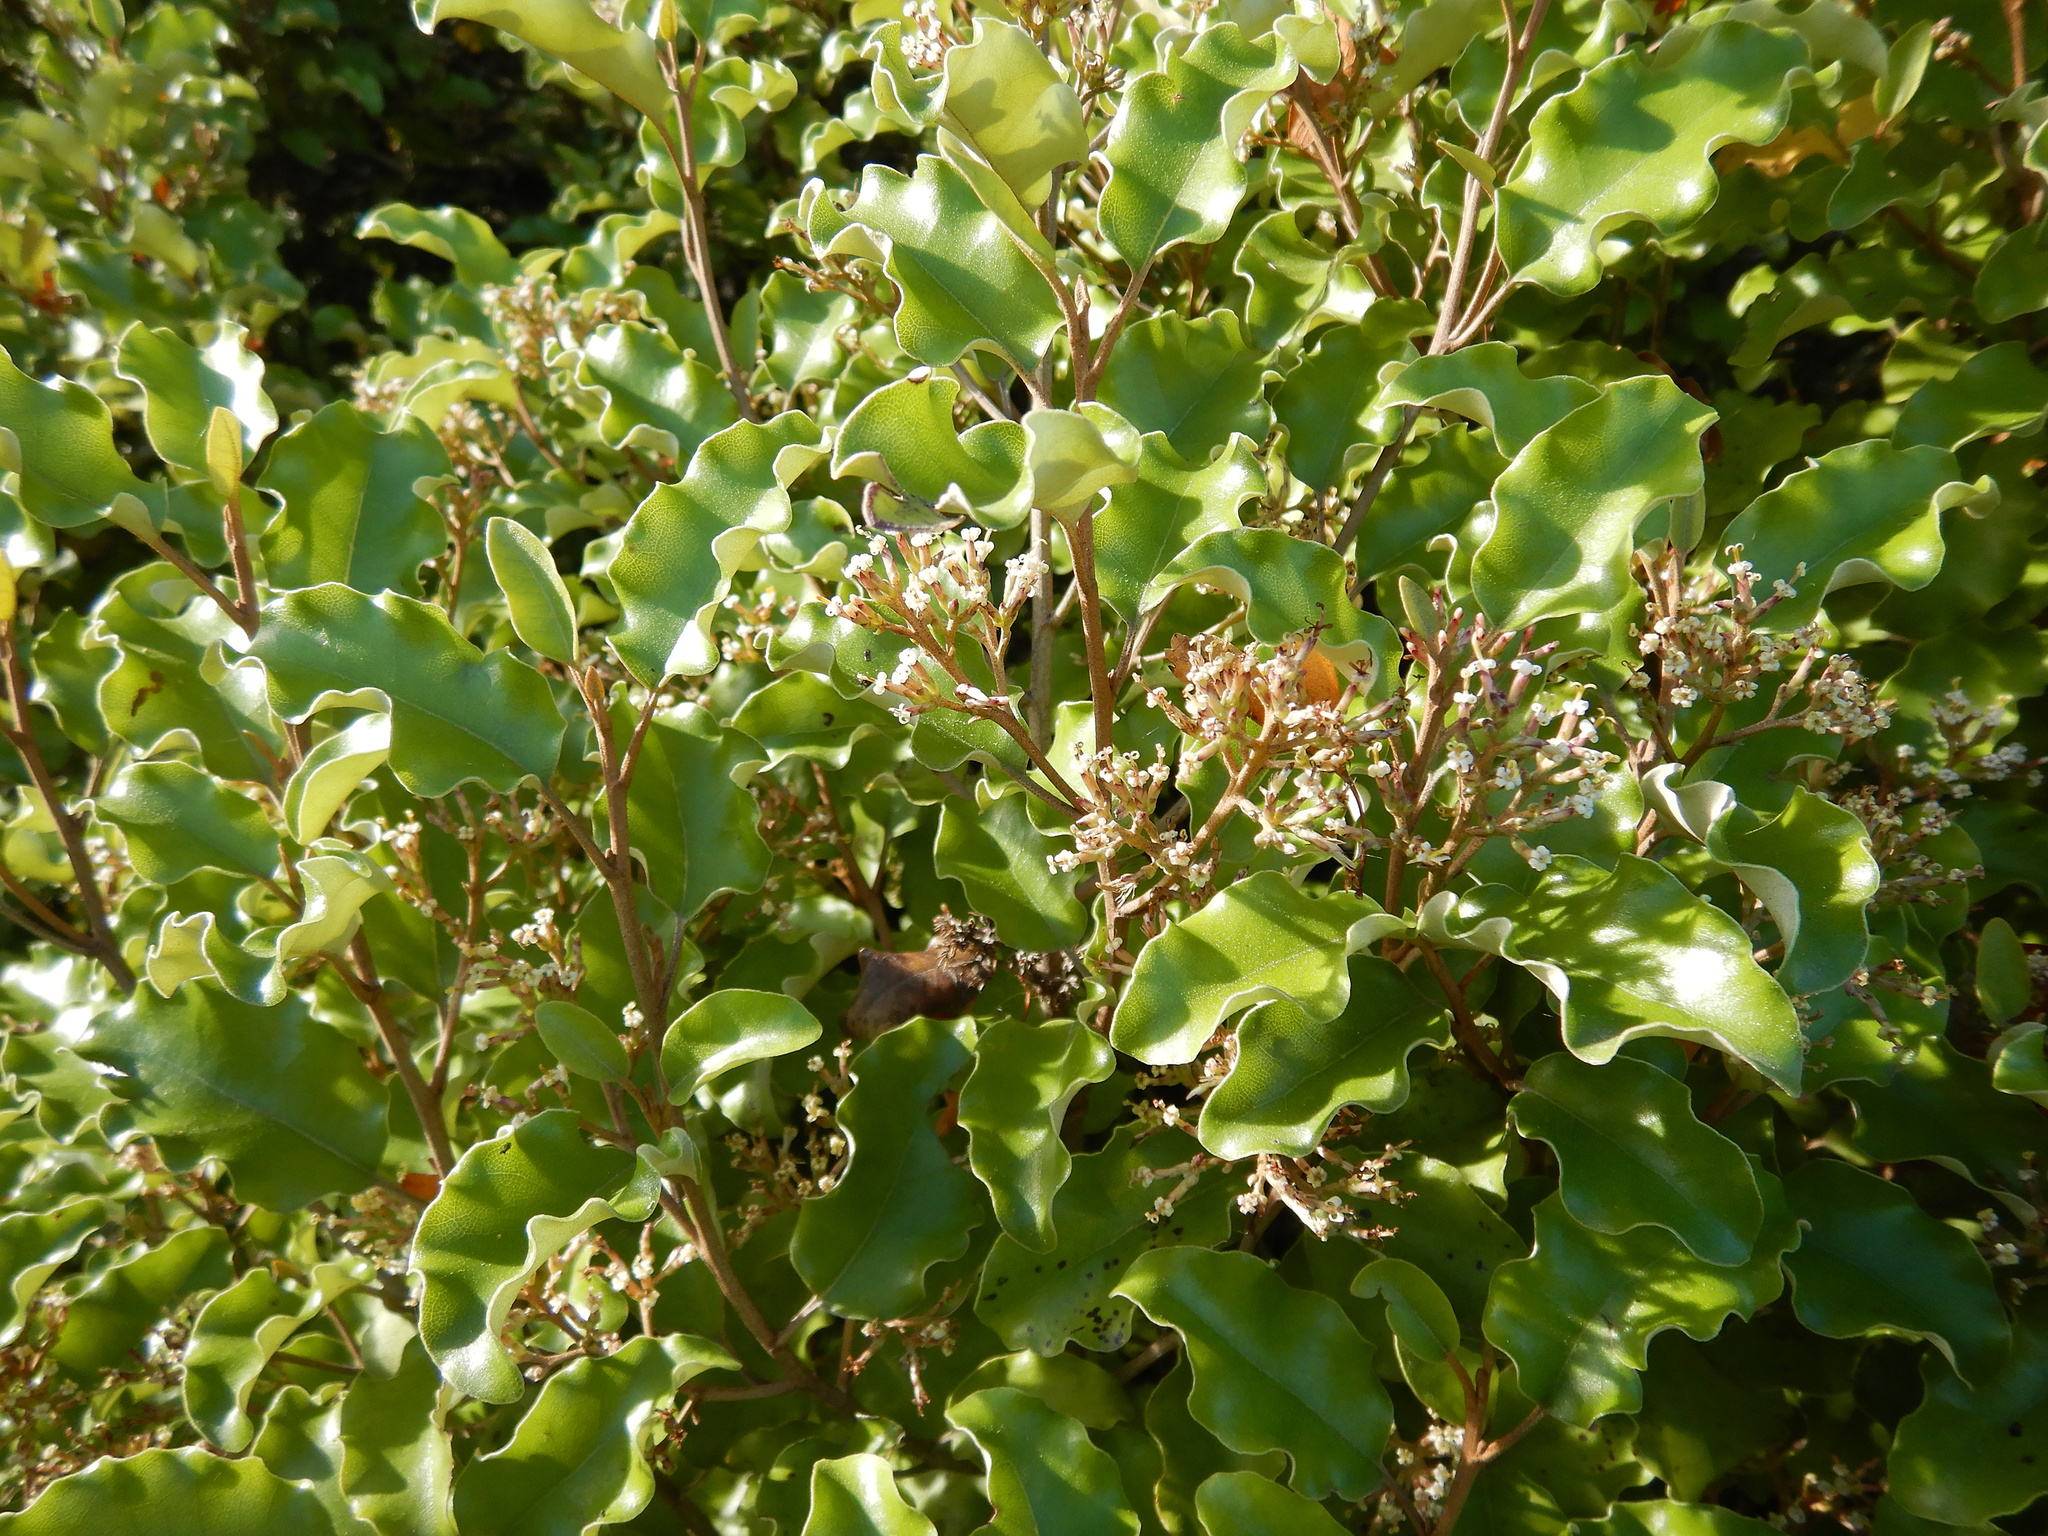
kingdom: Plantae
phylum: Tracheophyta
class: Magnoliopsida
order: Asterales
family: Asteraceae
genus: Olearia
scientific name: Olearia paniculata
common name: Akiraho
